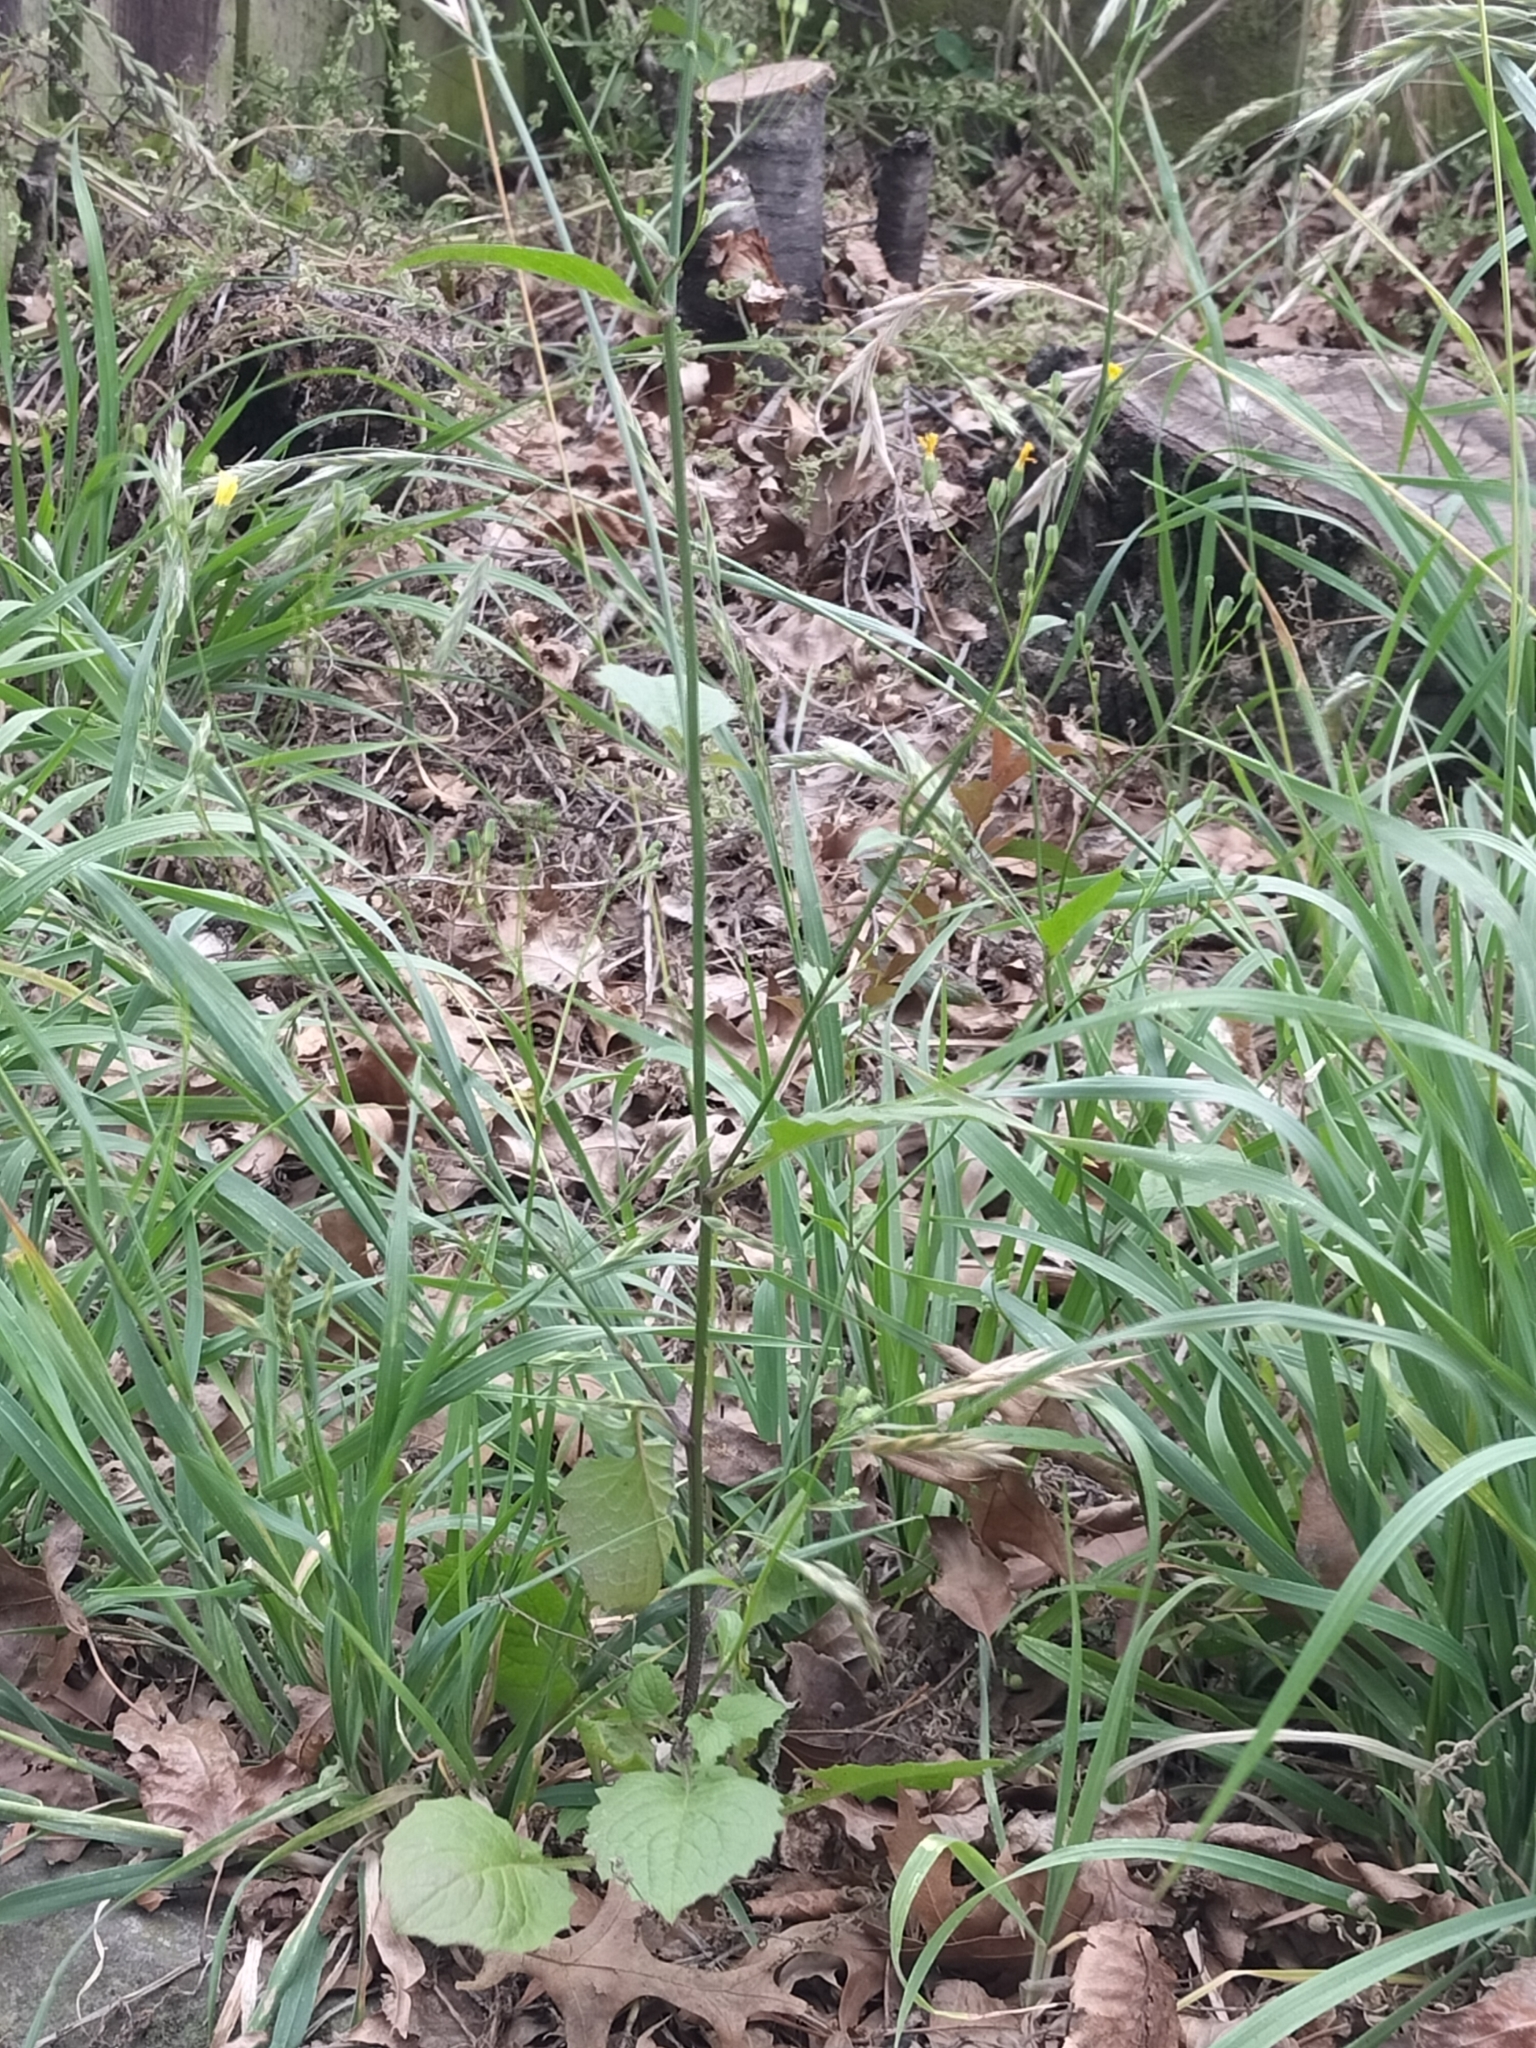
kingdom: Plantae
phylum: Tracheophyta
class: Magnoliopsida
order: Asterales
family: Asteraceae
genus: Lapsana
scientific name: Lapsana communis
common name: Nipplewort
